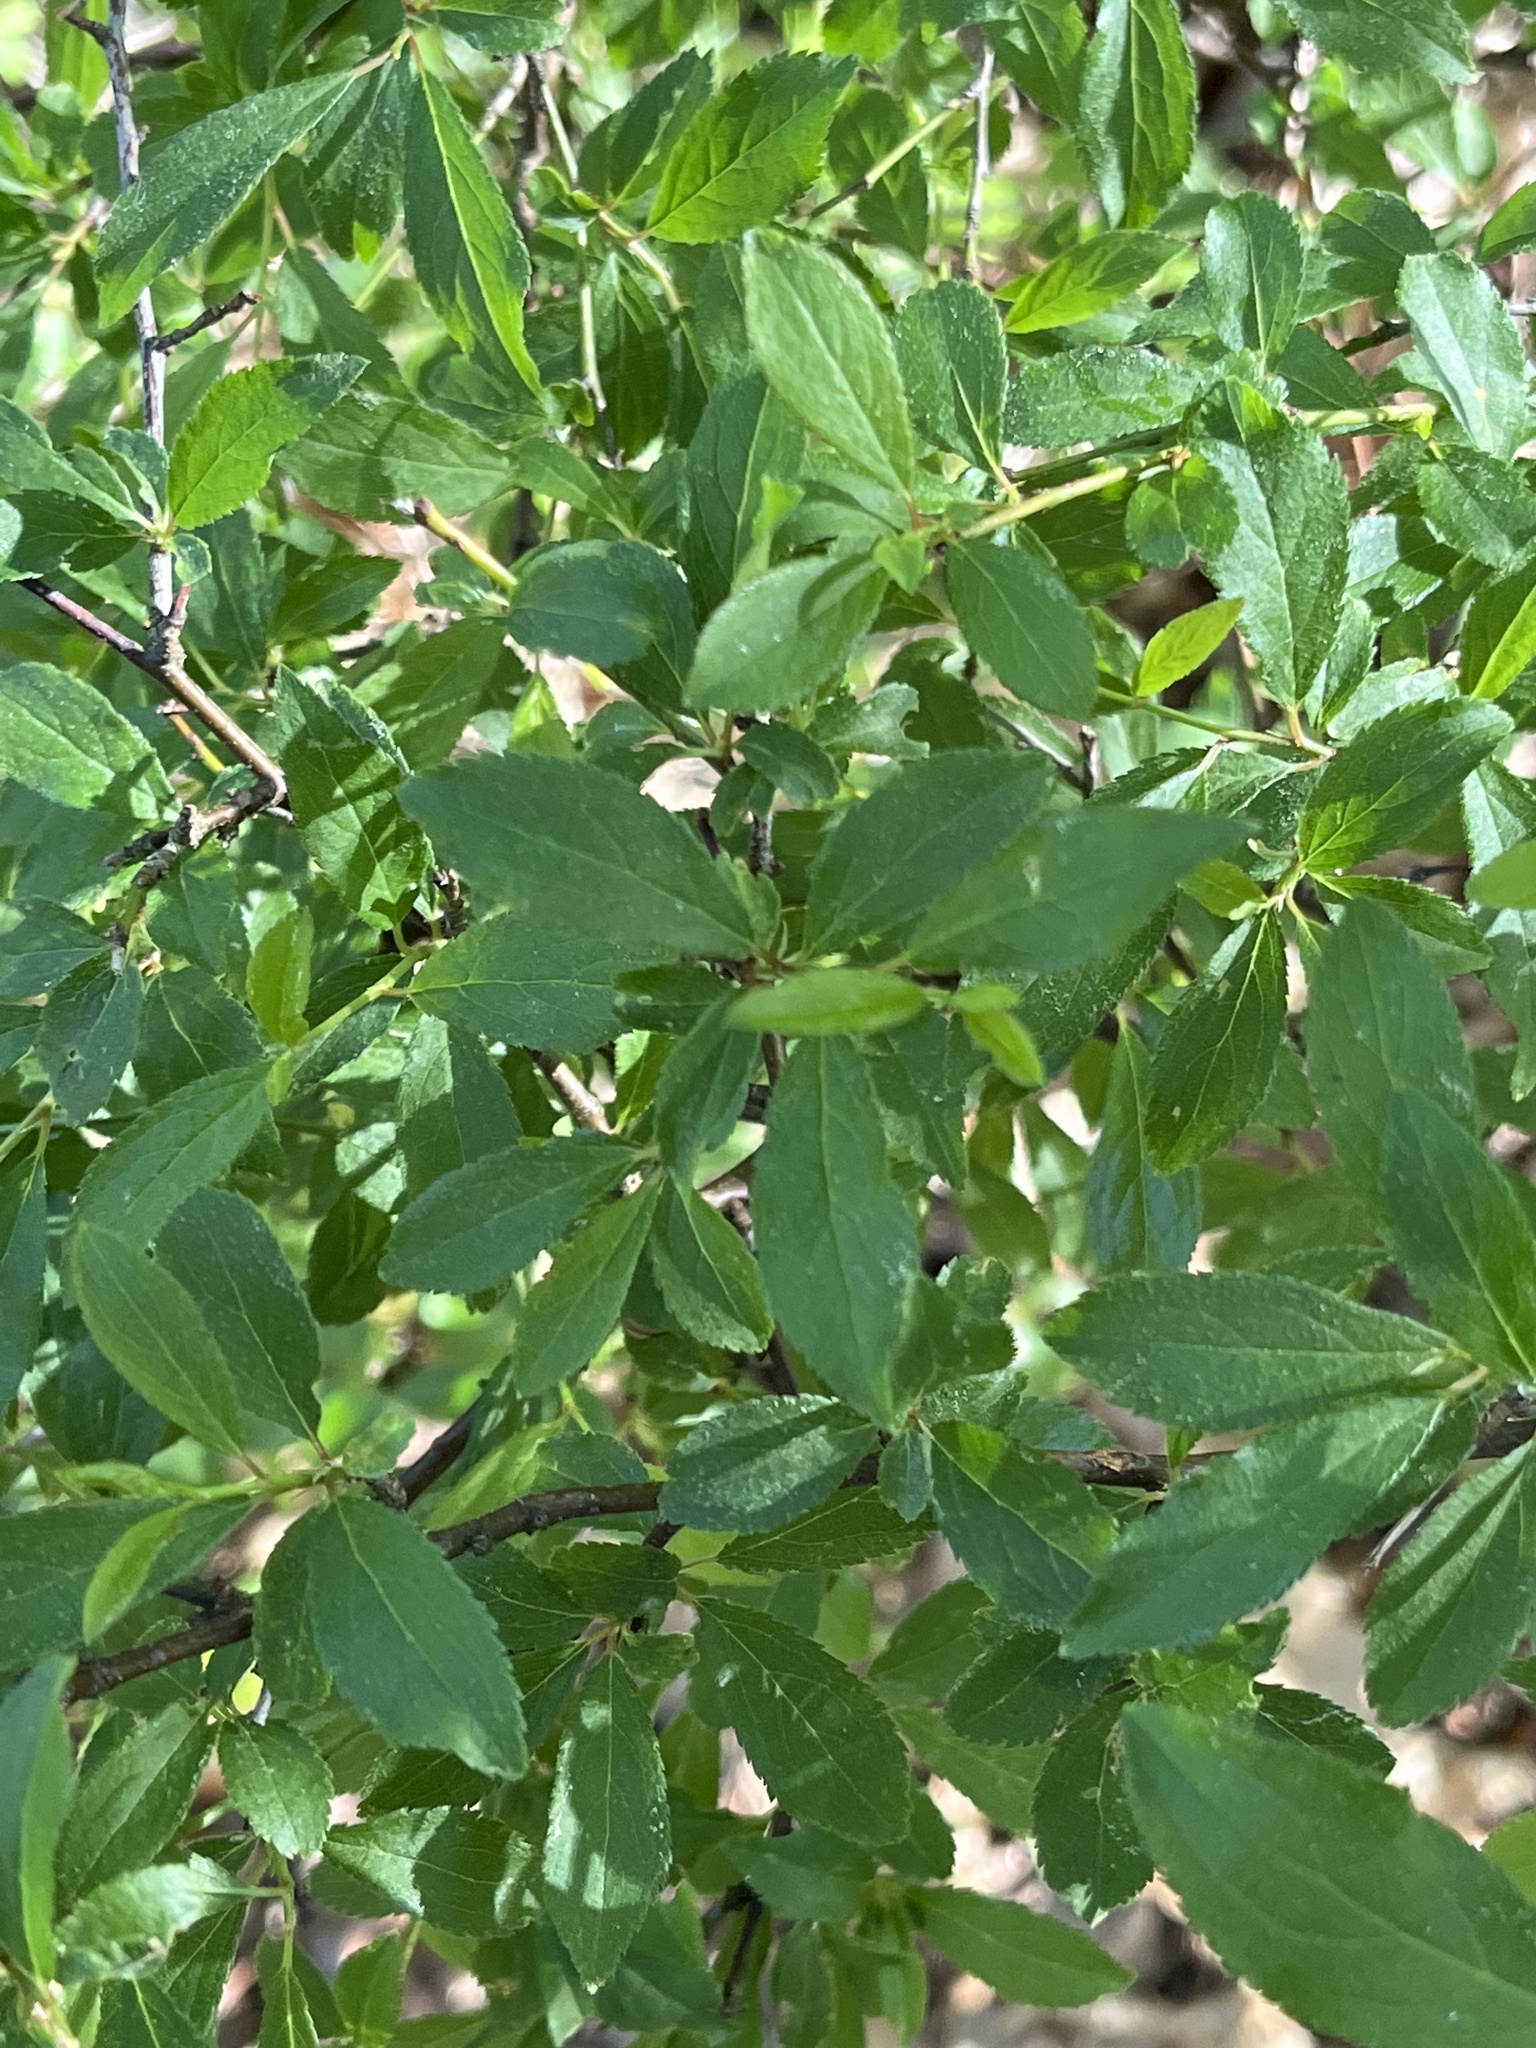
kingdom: Plantae
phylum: Tracheophyta
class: Magnoliopsida
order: Rosales
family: Rosaceae
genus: Prunus
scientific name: Prunus spinosa
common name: Blackthorn
